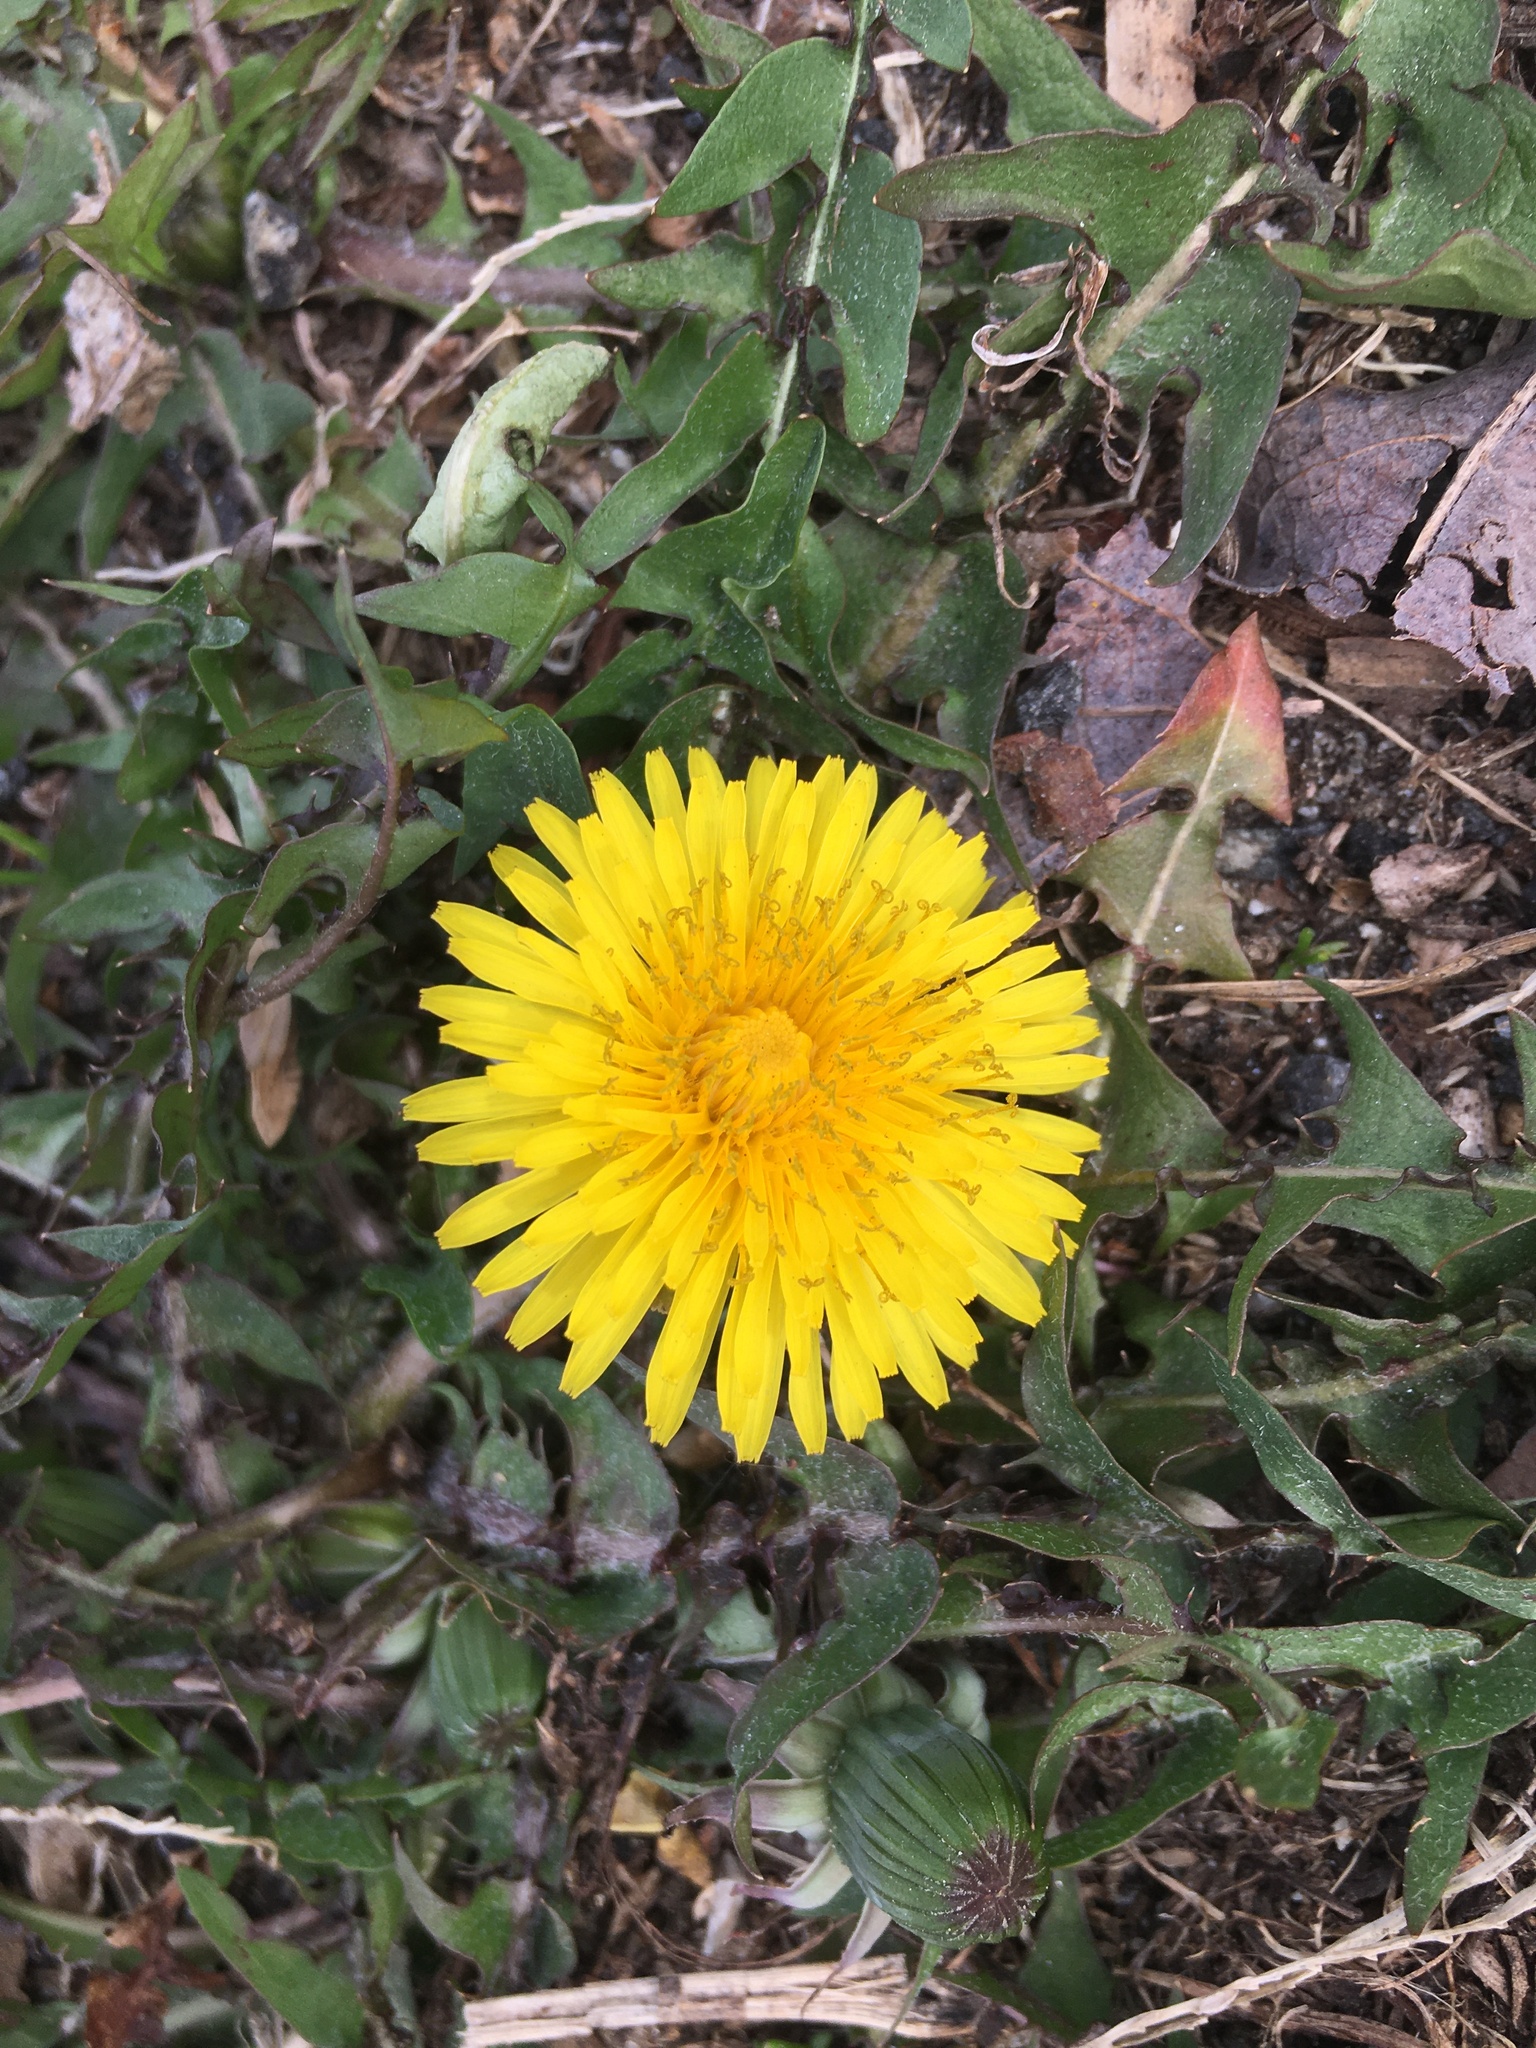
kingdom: Plantae
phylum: Tracheophyta
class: Magnoliopsida
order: Asterales
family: Asteraceae
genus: Taraxacum
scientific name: Taraxacum officinale
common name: Common dandelion
